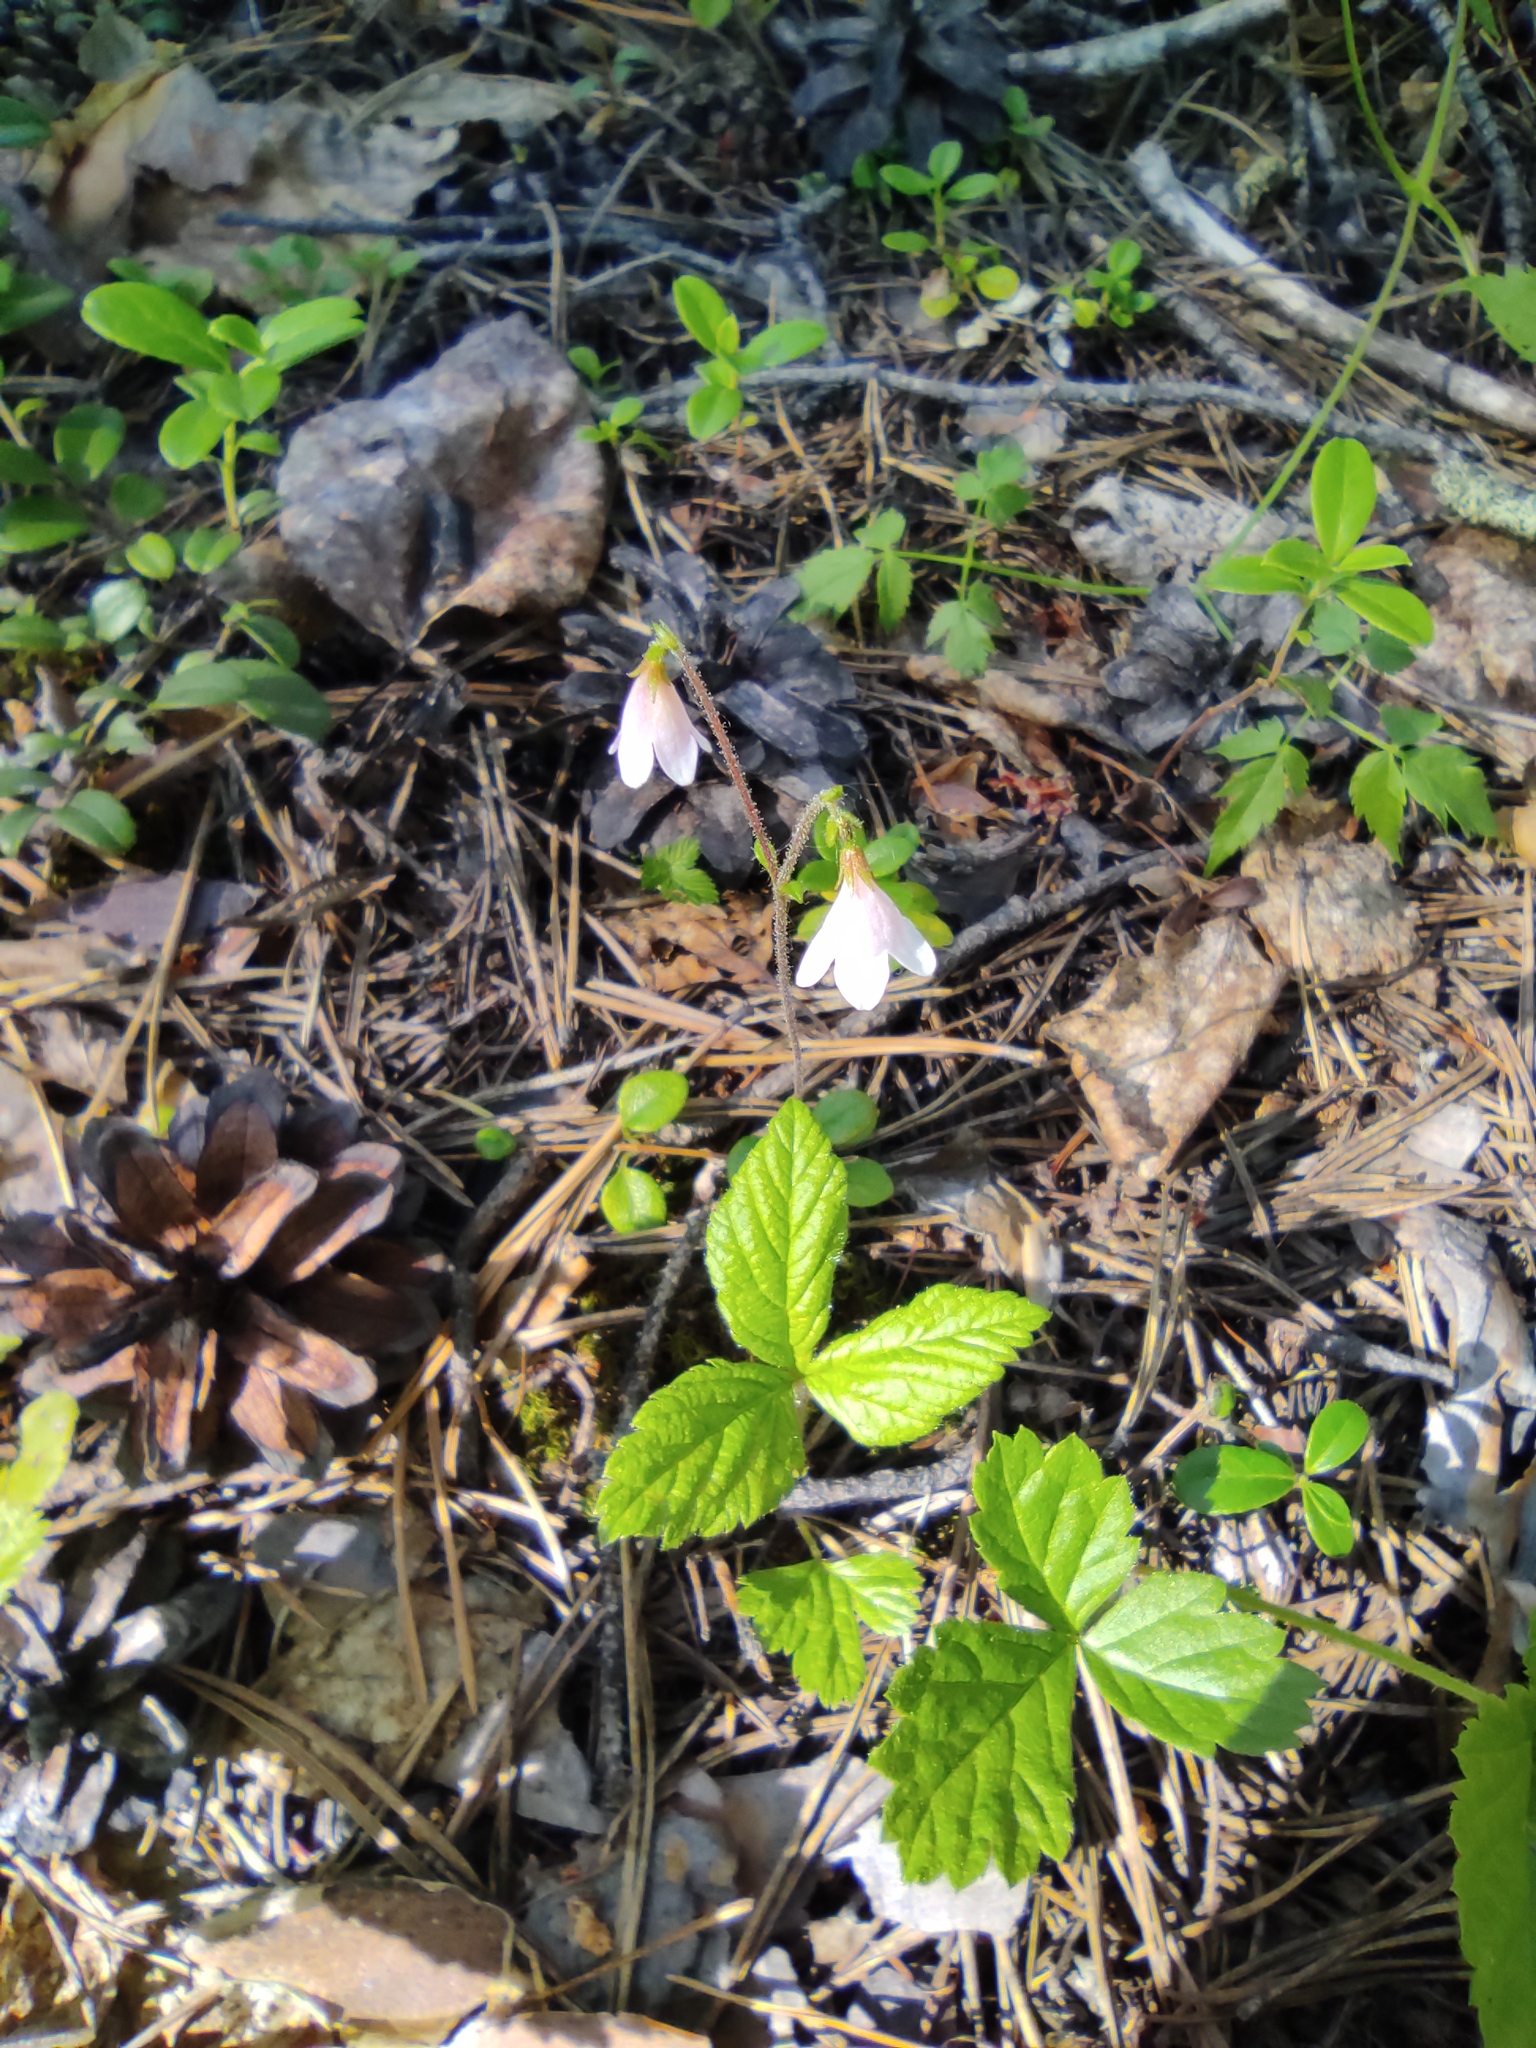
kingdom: Plantae
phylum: Tracheophyta
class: Magnoliopsida
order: Dipsacales
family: Caprifoliaceae
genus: Linnaea
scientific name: Linnaea borealis
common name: Twinflower
